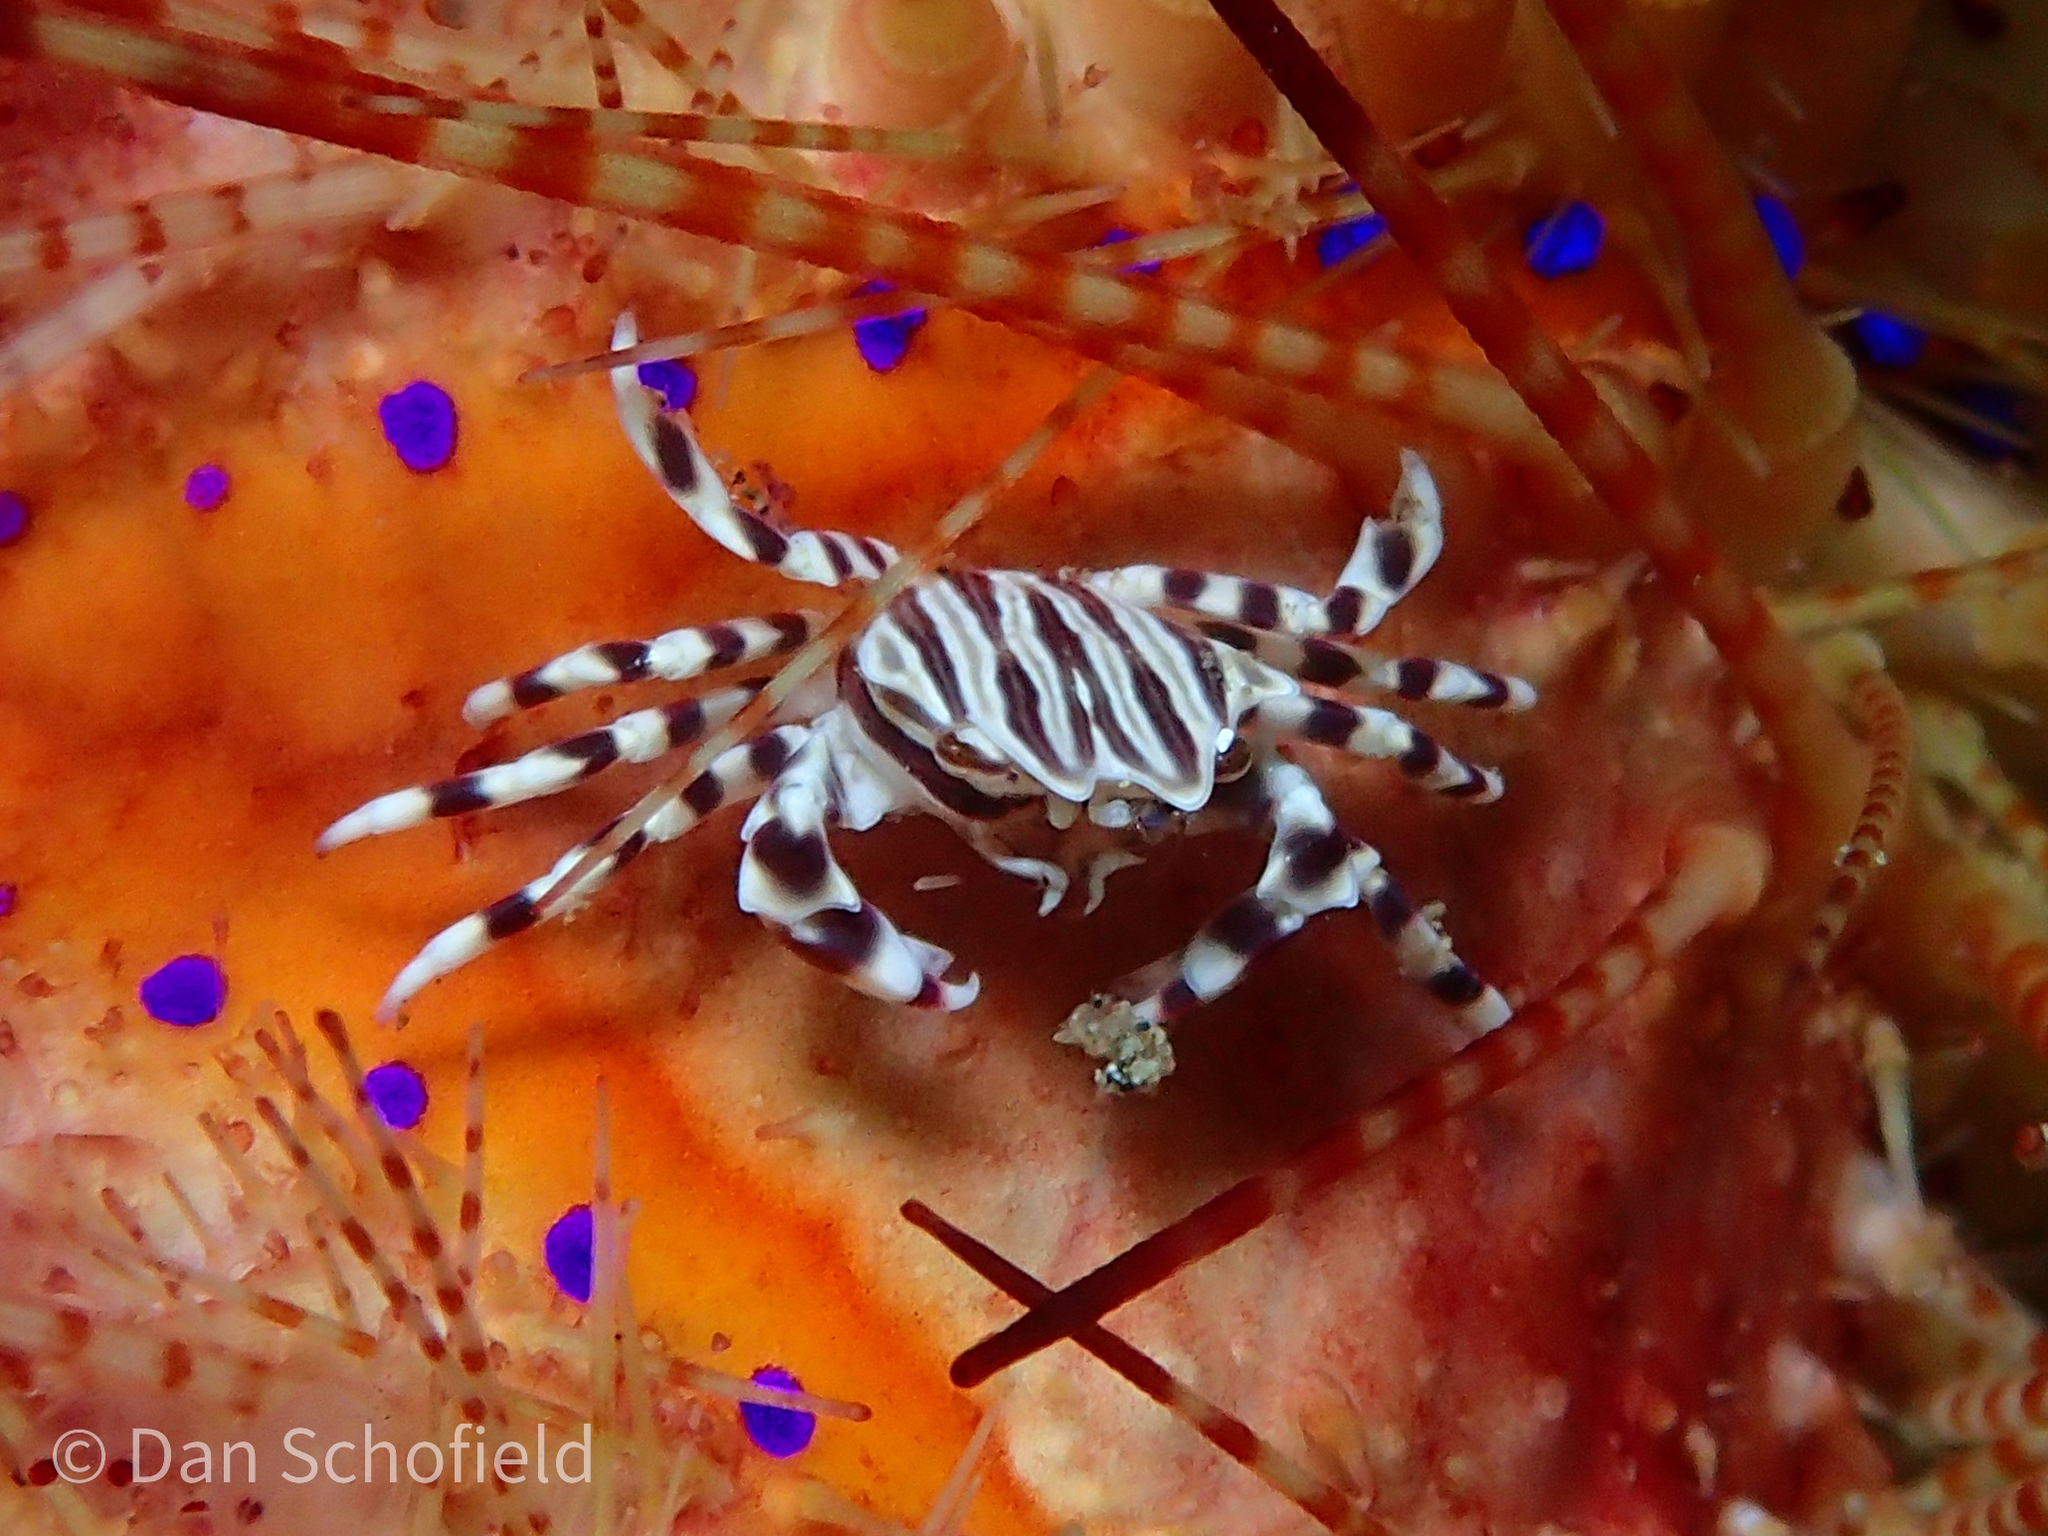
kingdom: Animalia
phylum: Arthropoda
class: Malacostraca
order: Decapoda
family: Pilumnidae
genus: Zebrida
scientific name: Zebrida adamsii
